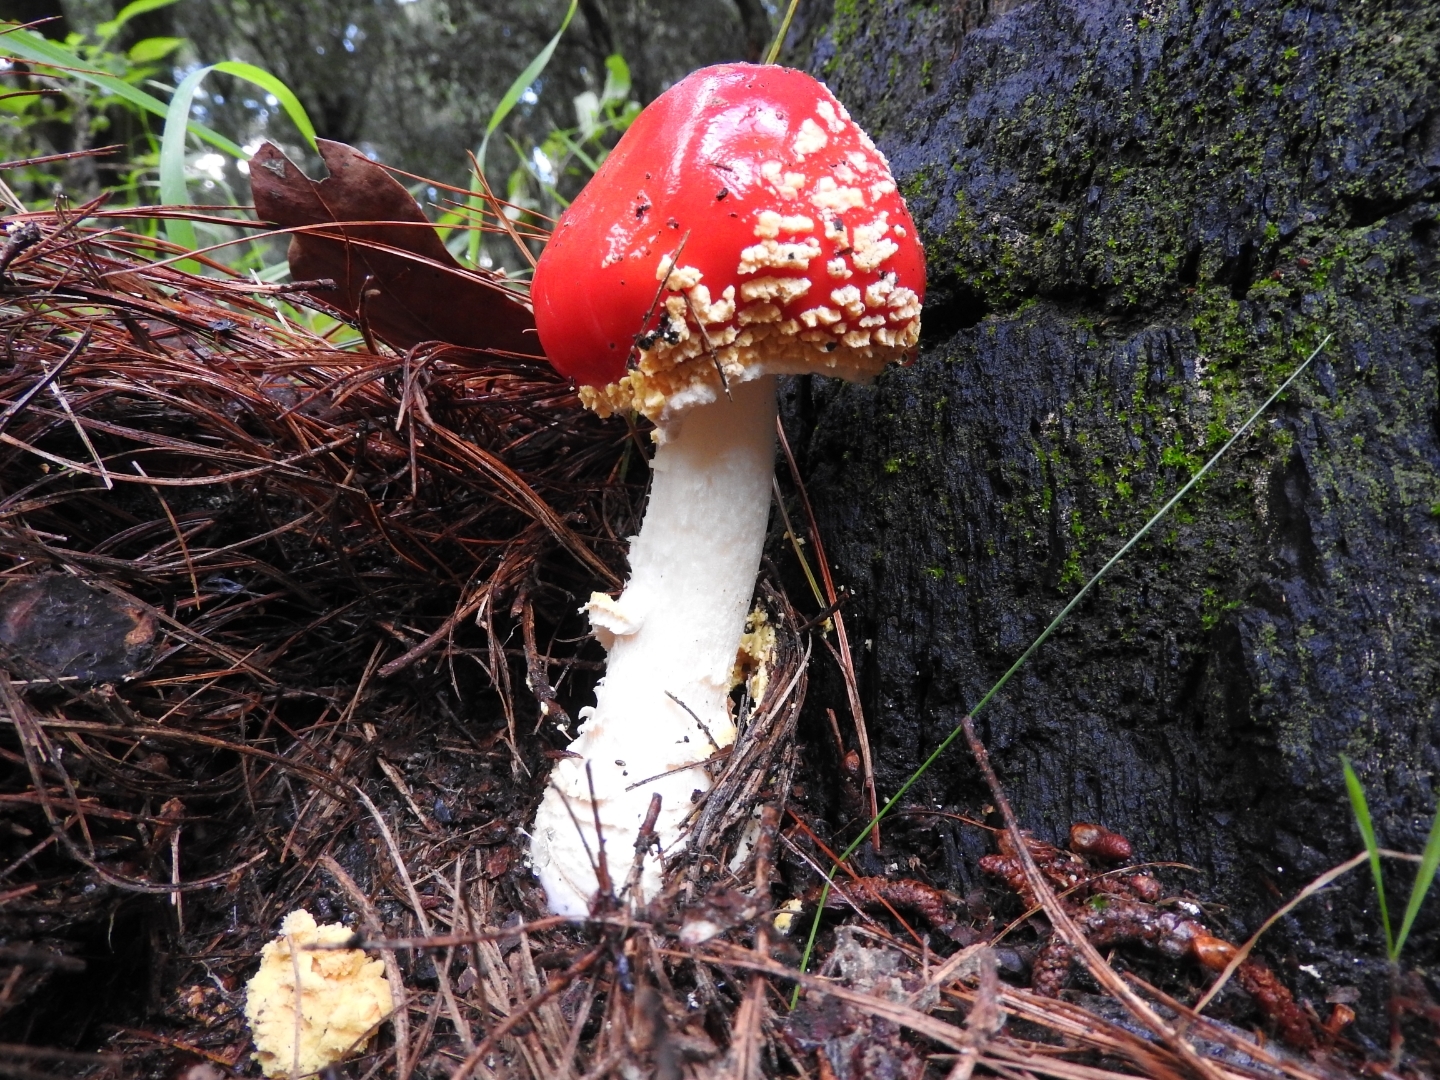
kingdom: Fungi
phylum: Basidiomycota
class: Agaricomycetes
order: Agaricales
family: Amanitaceae
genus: Amanita
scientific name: Amanita muscaria
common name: Fly agaric
